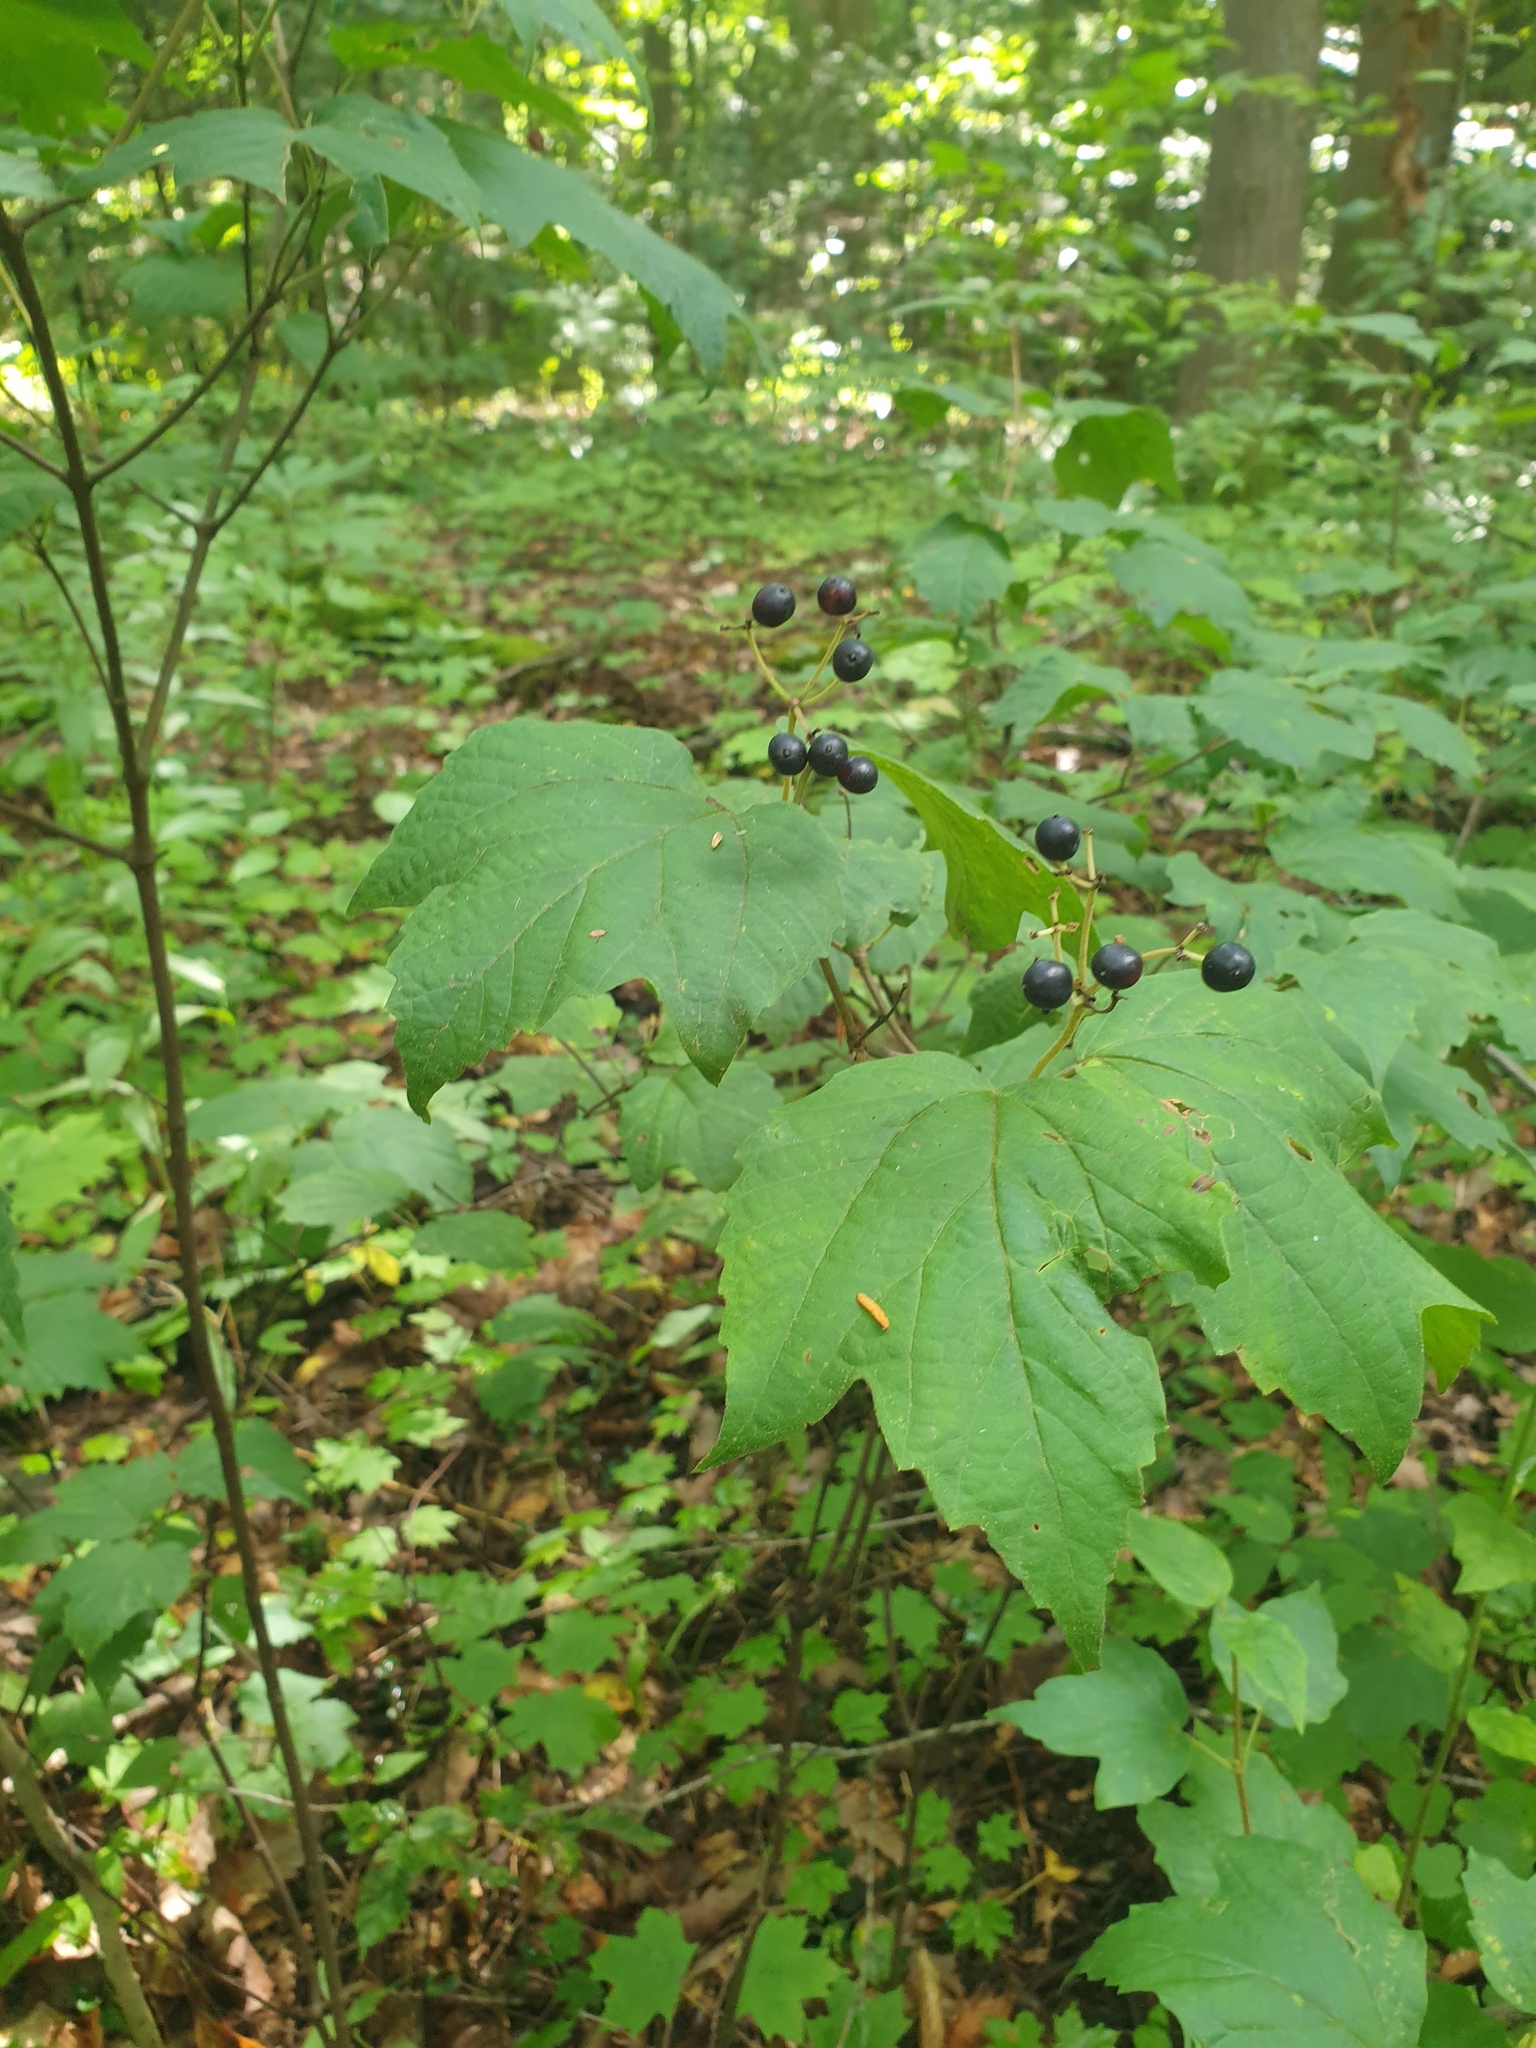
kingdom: Plantae
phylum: Tracheophyta
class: Magnoliopsida
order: Dipsacales
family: Viburnaceae
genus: Viburnum
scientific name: Viburnum acerifolium
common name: Dockmackie
